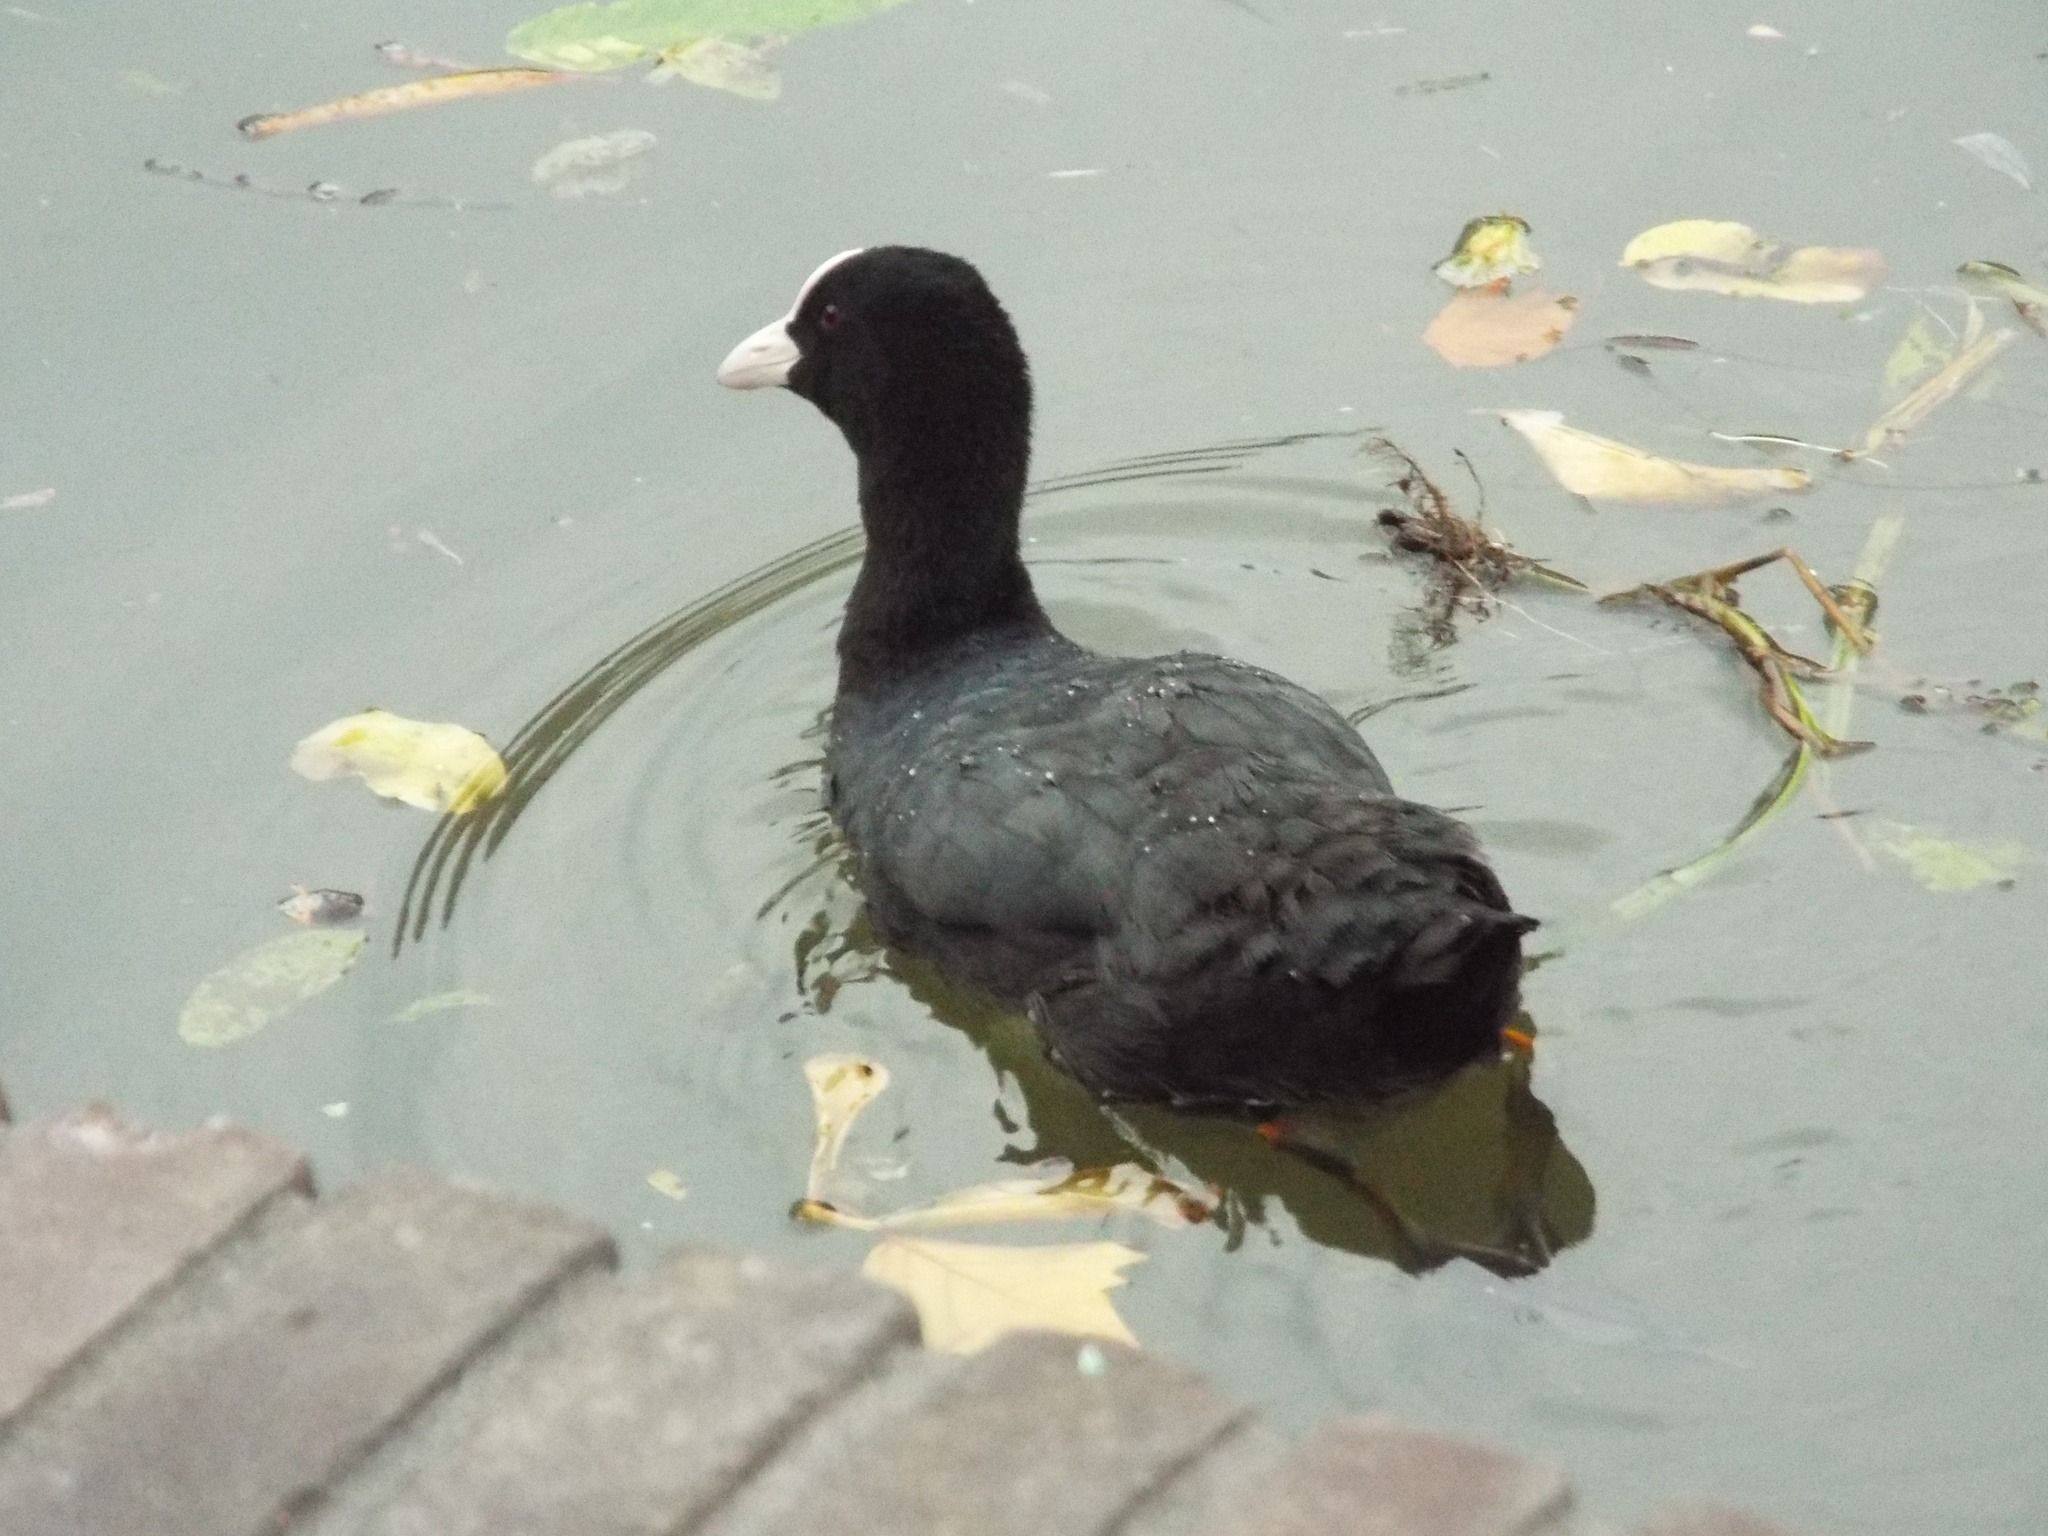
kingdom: Animalia
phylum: Chordata
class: Aves
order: Gruiformes
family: Rallidae
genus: Fulica
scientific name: Fulica atra
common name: Eurasian coot
